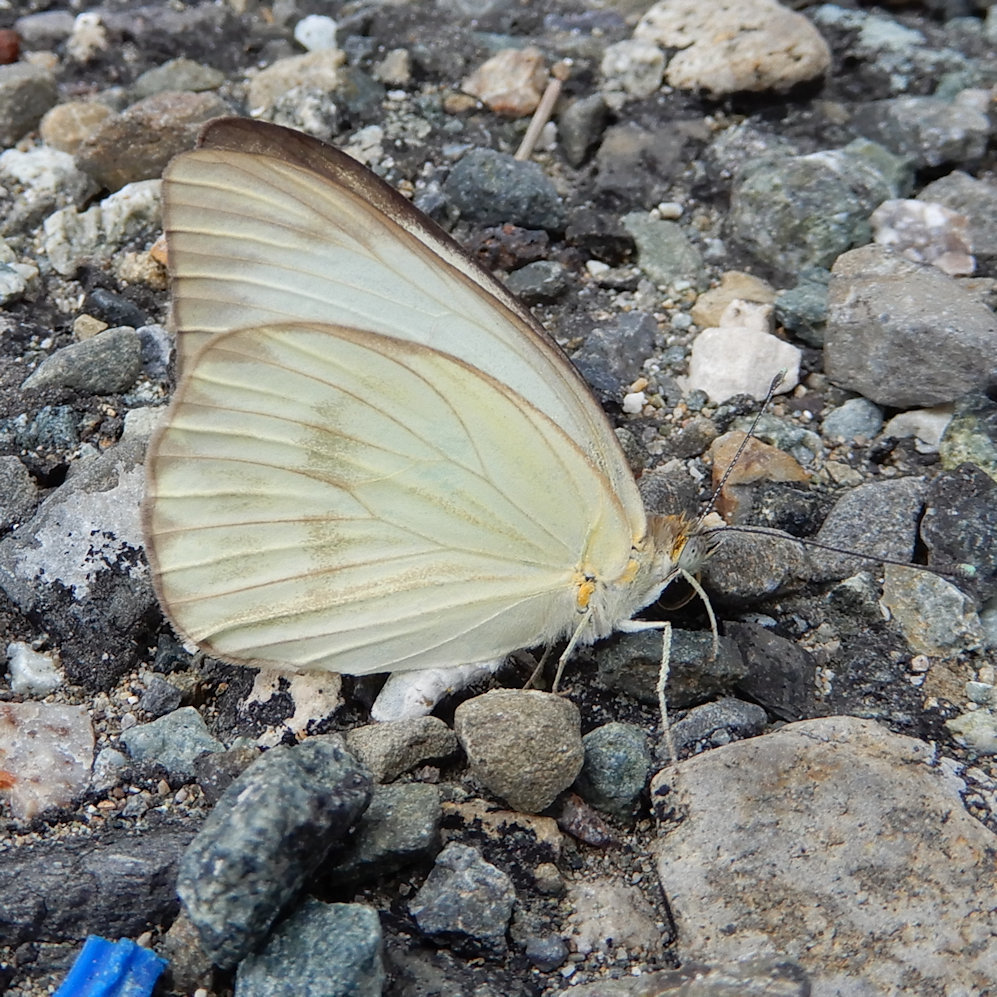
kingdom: Animalia
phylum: Arthropoda
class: Insecta
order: Lepidoptera
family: Pieridae
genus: Ascia
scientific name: Ascia monuste
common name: Great southern white
